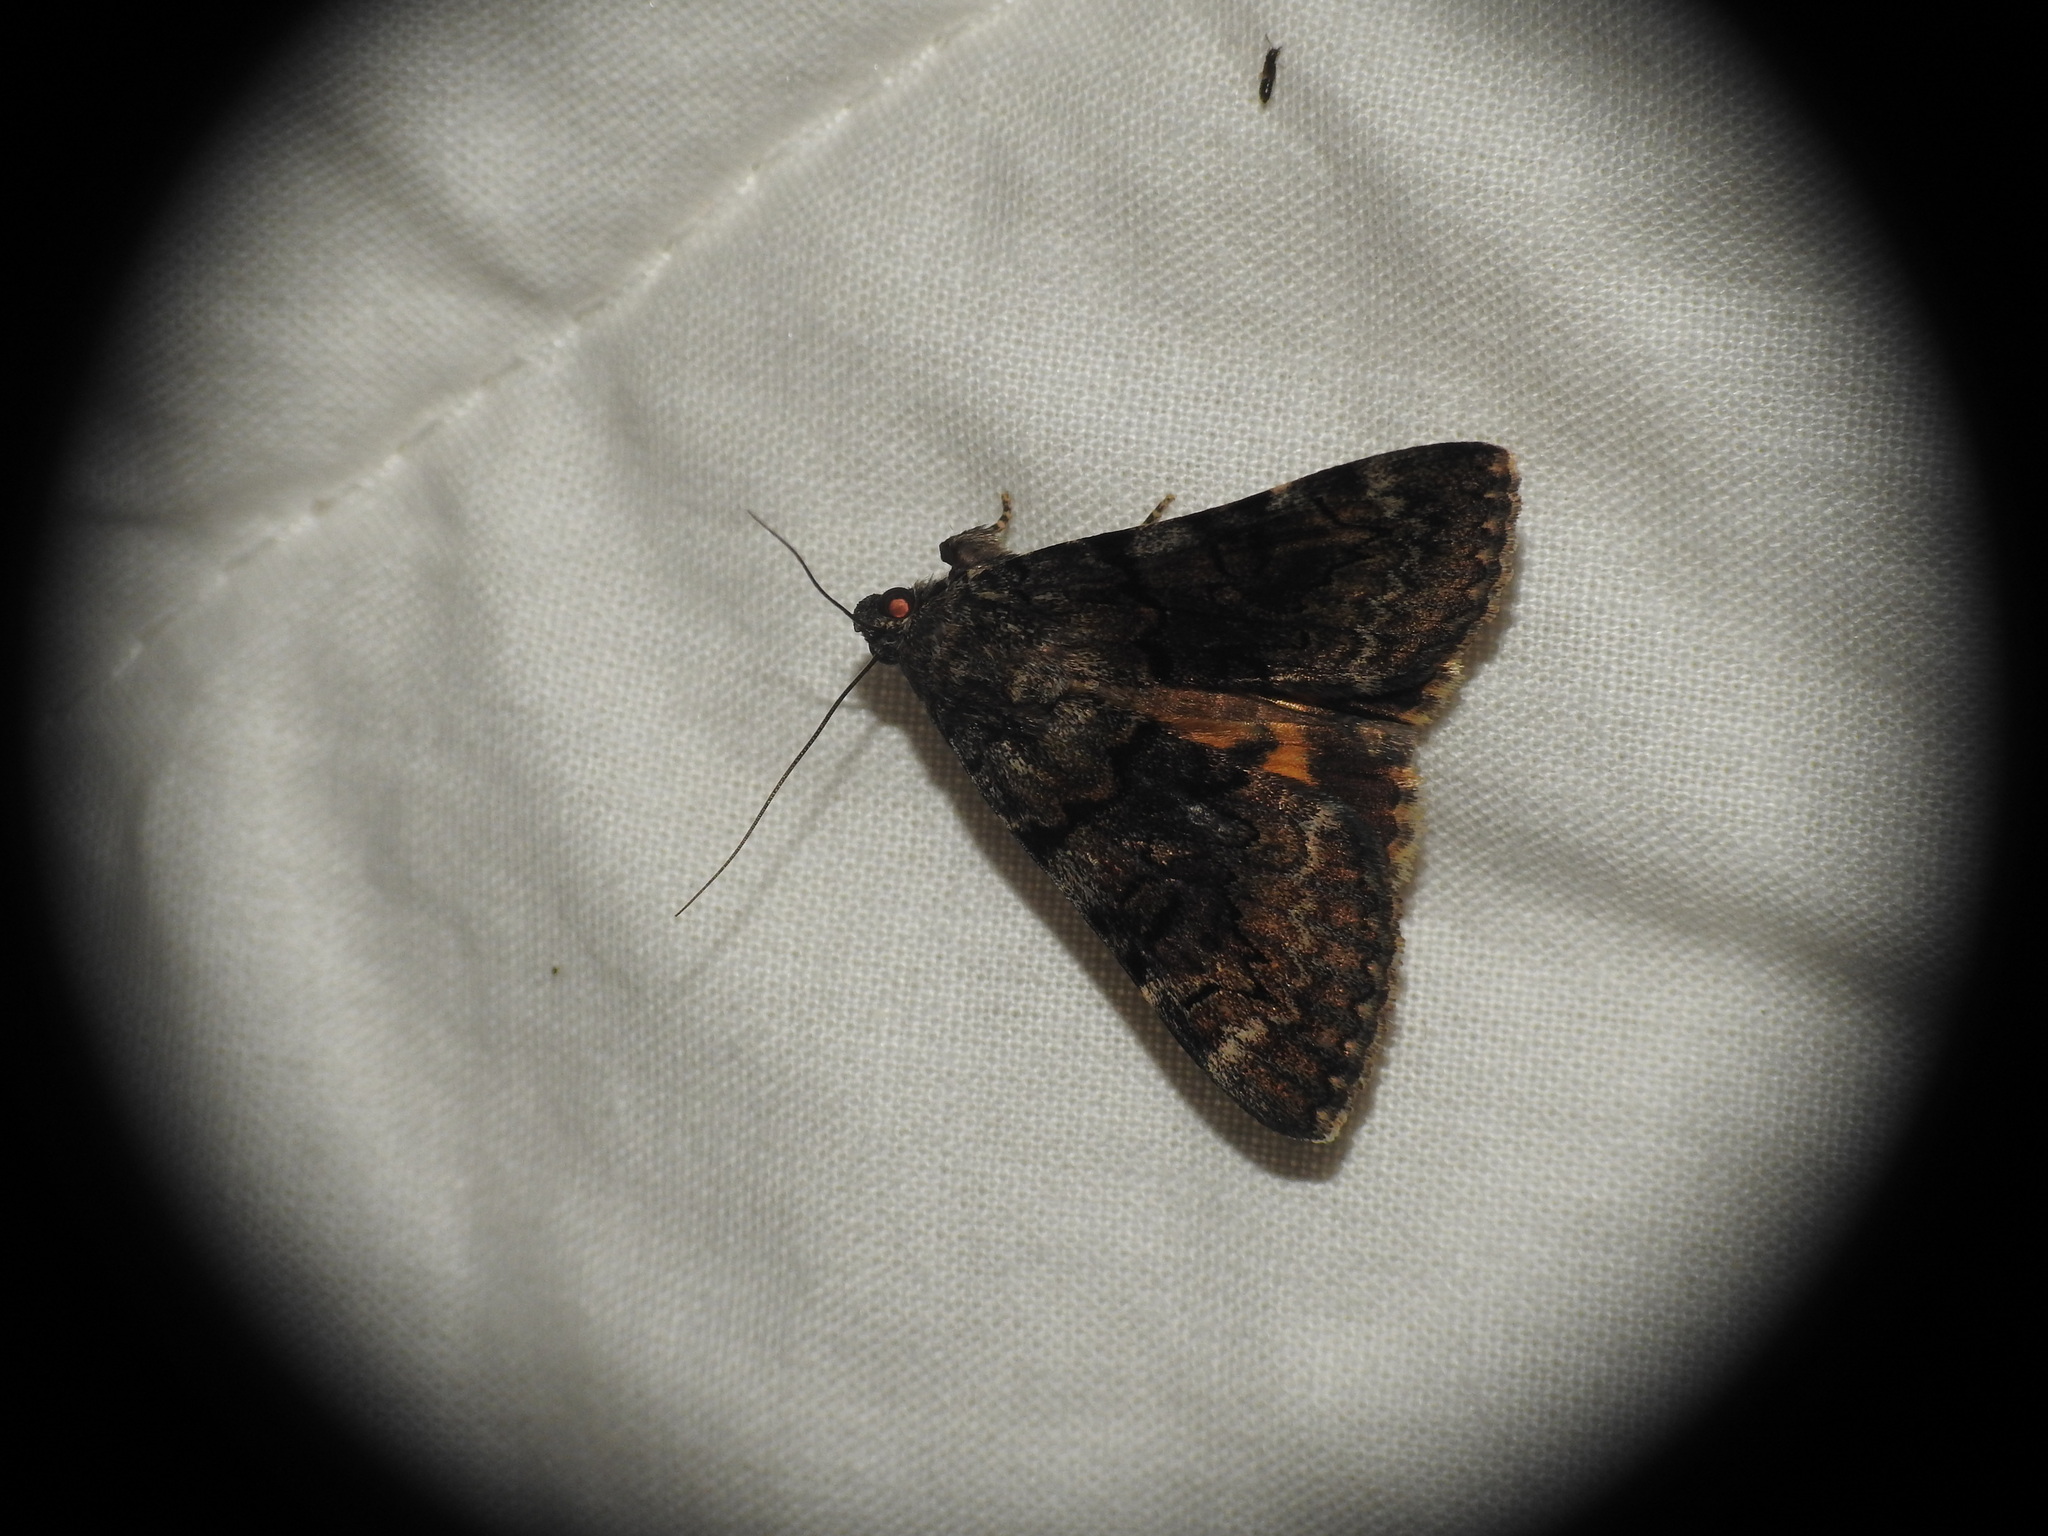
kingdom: Animalia
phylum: Arthropoda
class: Insecta
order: Lepidoptera
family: Erebidae
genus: Catocala
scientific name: Catocala nymphagoga
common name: Oak yellow underwing
